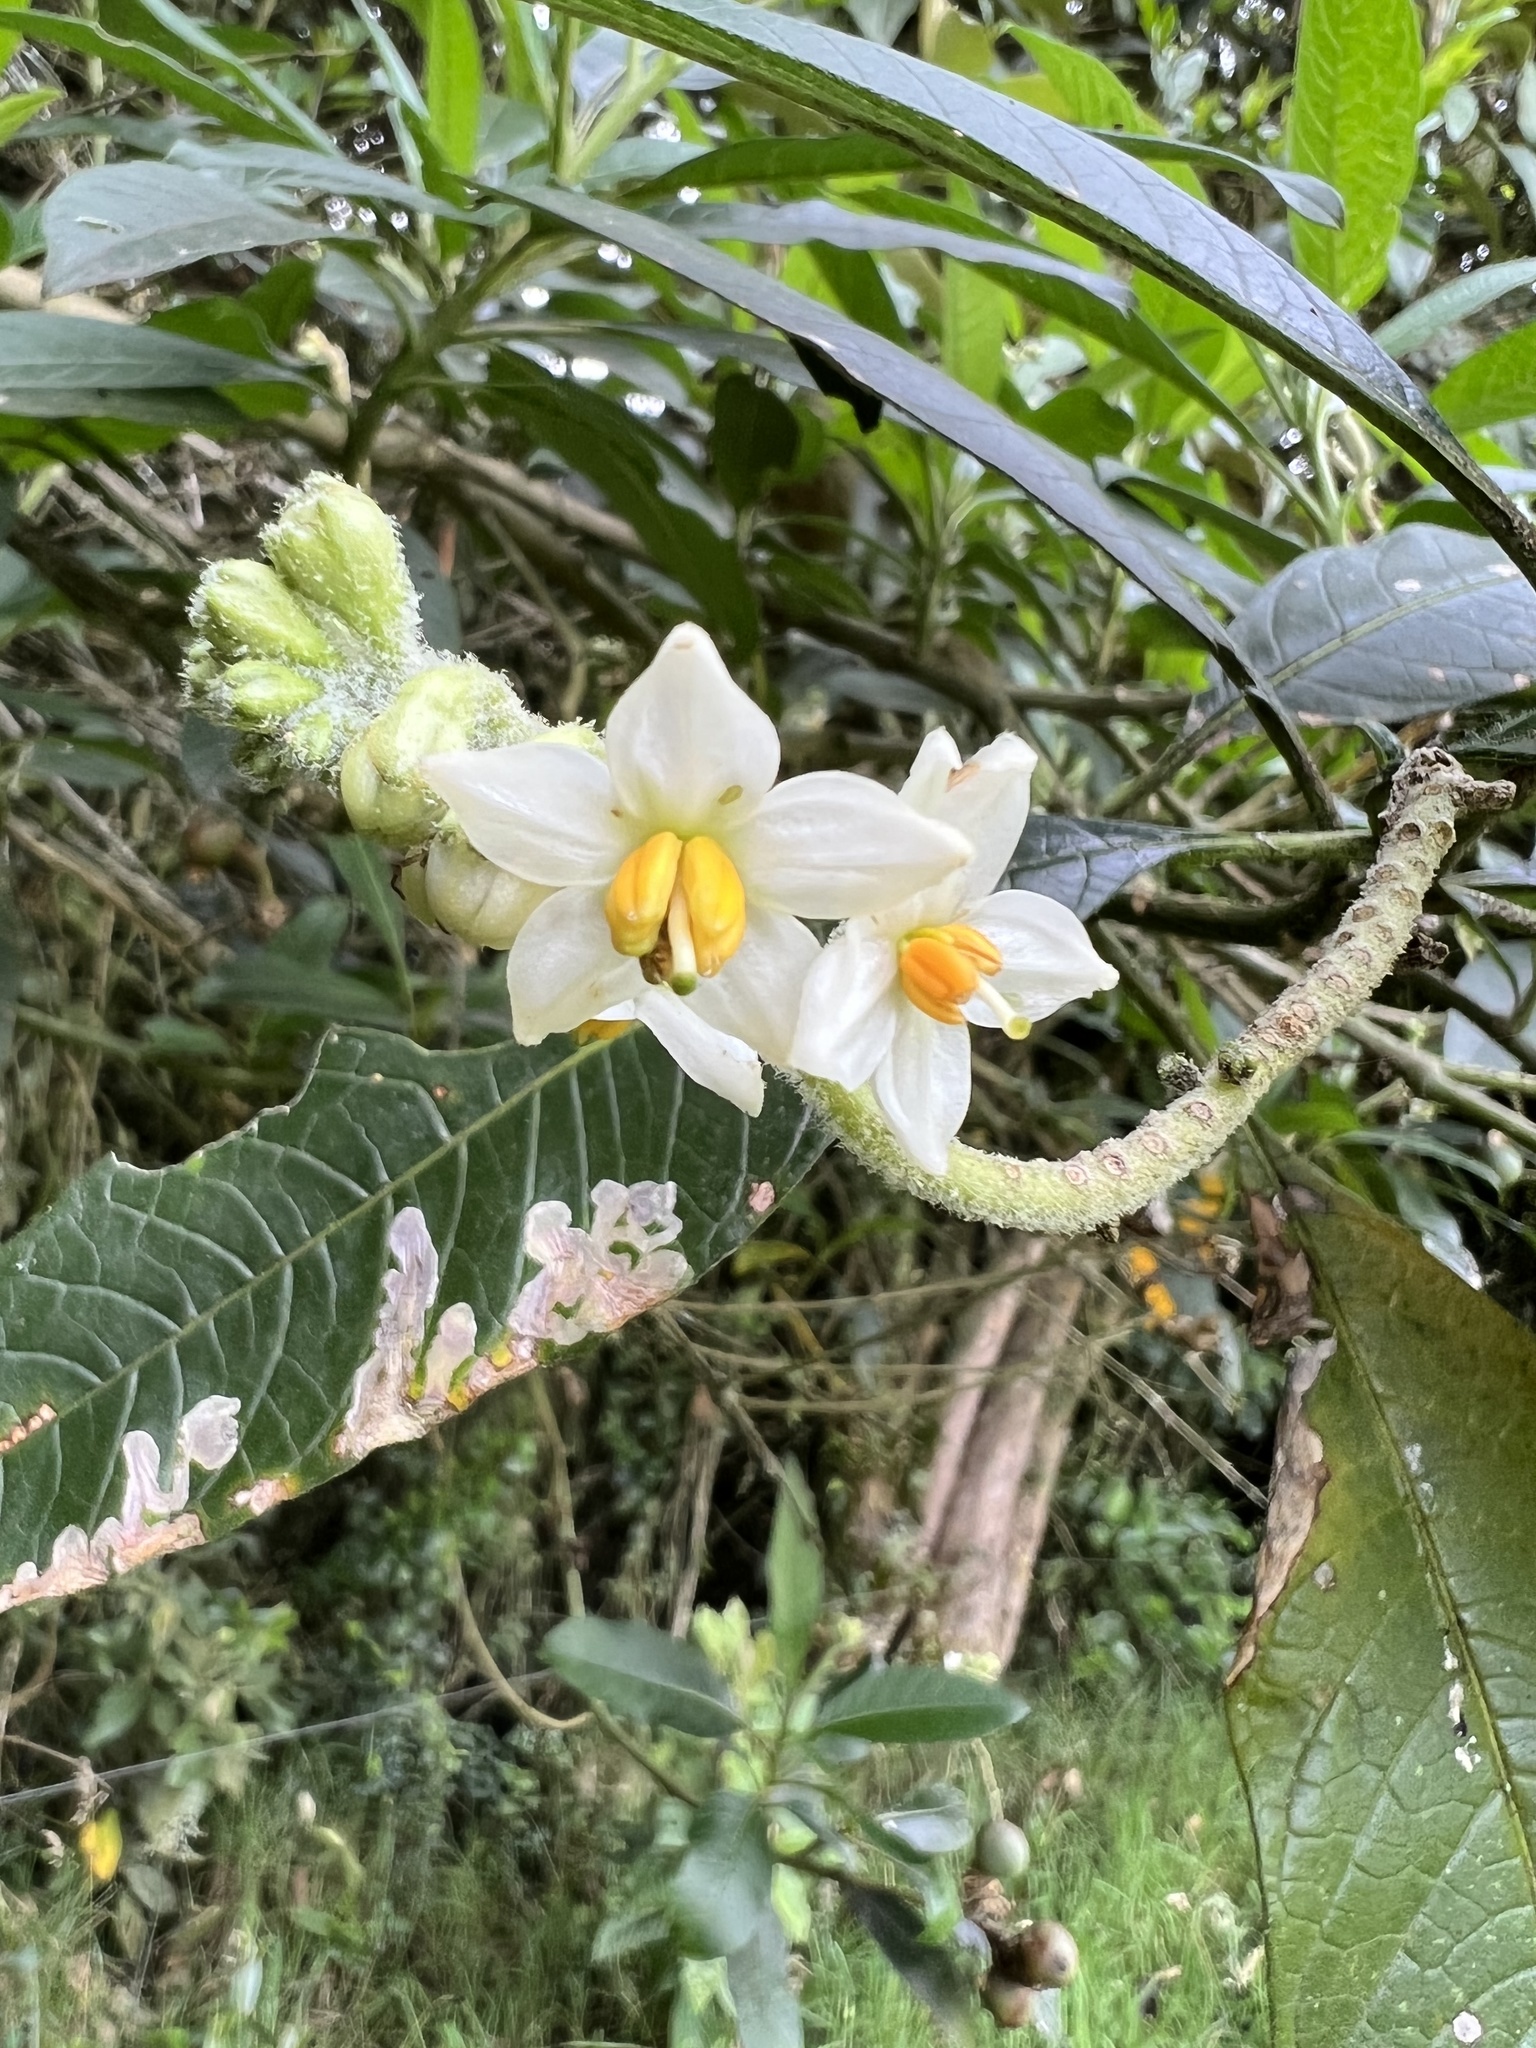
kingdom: Plantae
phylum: Tracheophyta
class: Magnoliopsida
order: Solanales
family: Solanaceae
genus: Solanum
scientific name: Solanum oblongifolium
